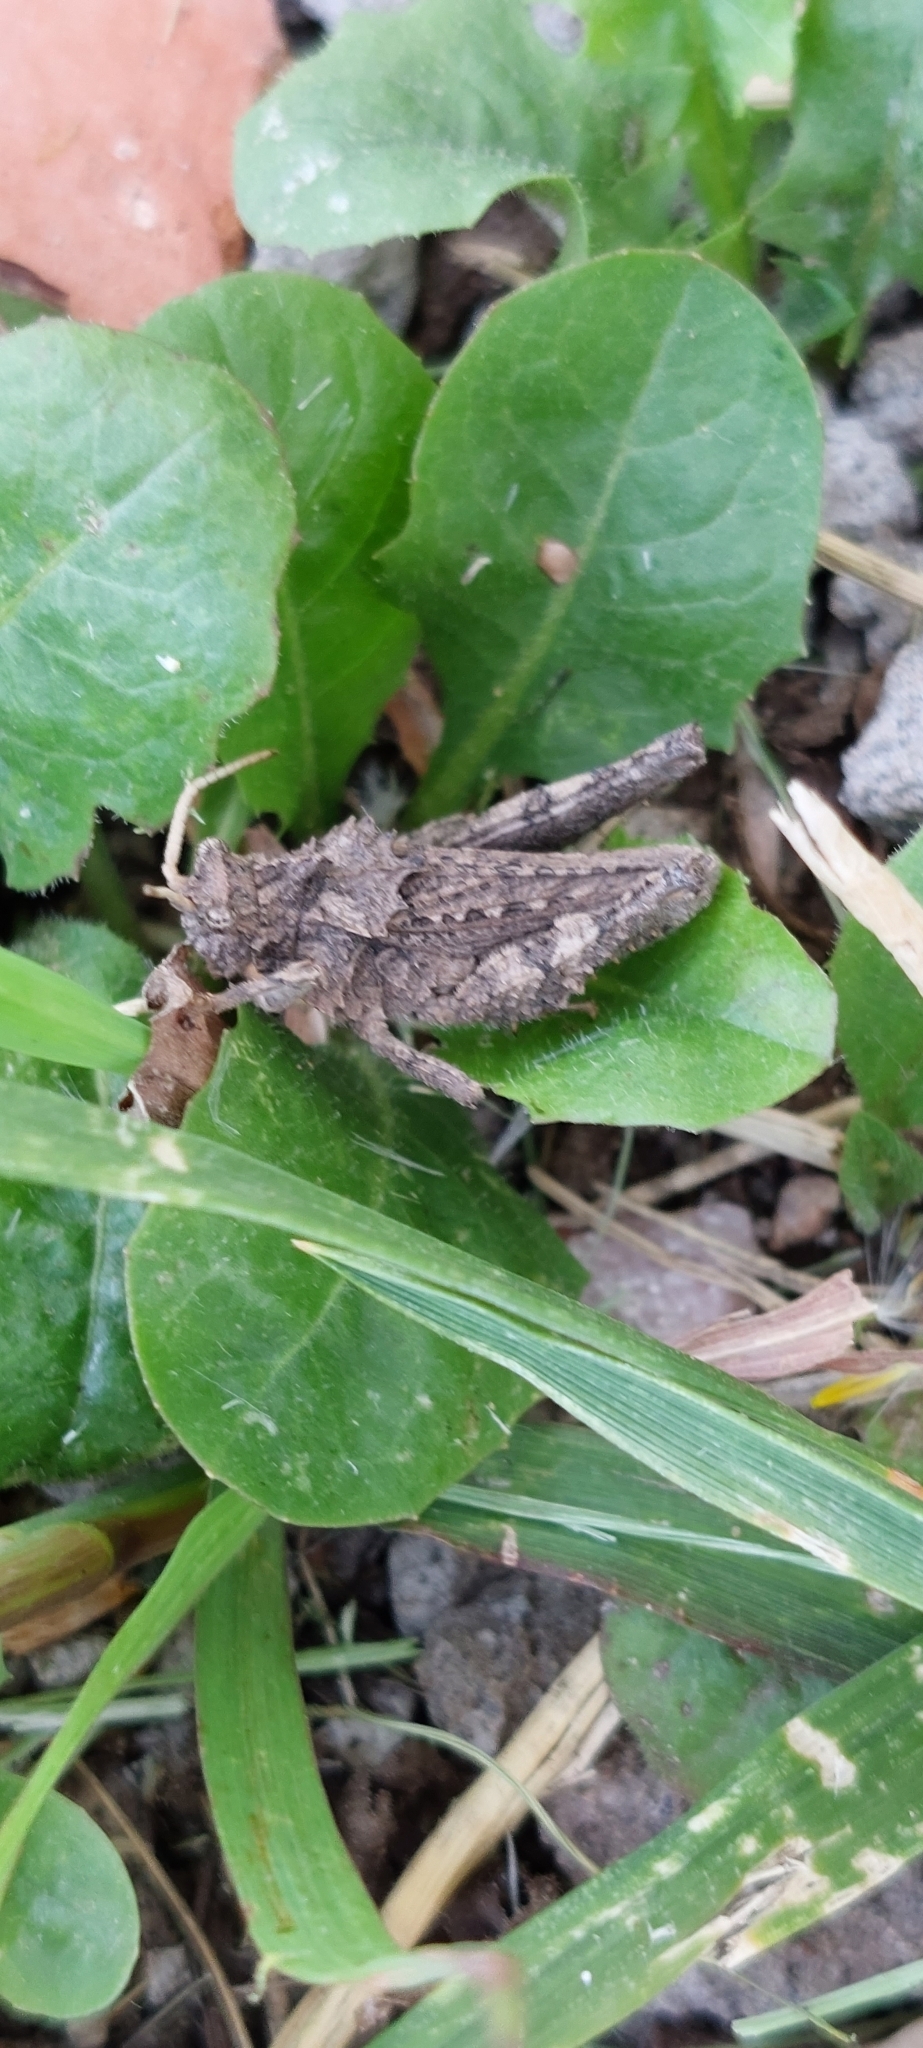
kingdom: Animalia
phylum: Arthropoda
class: Insecta
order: Orthoptera
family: Ommexechidae
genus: Spathalium
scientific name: Spathalium audouinii
